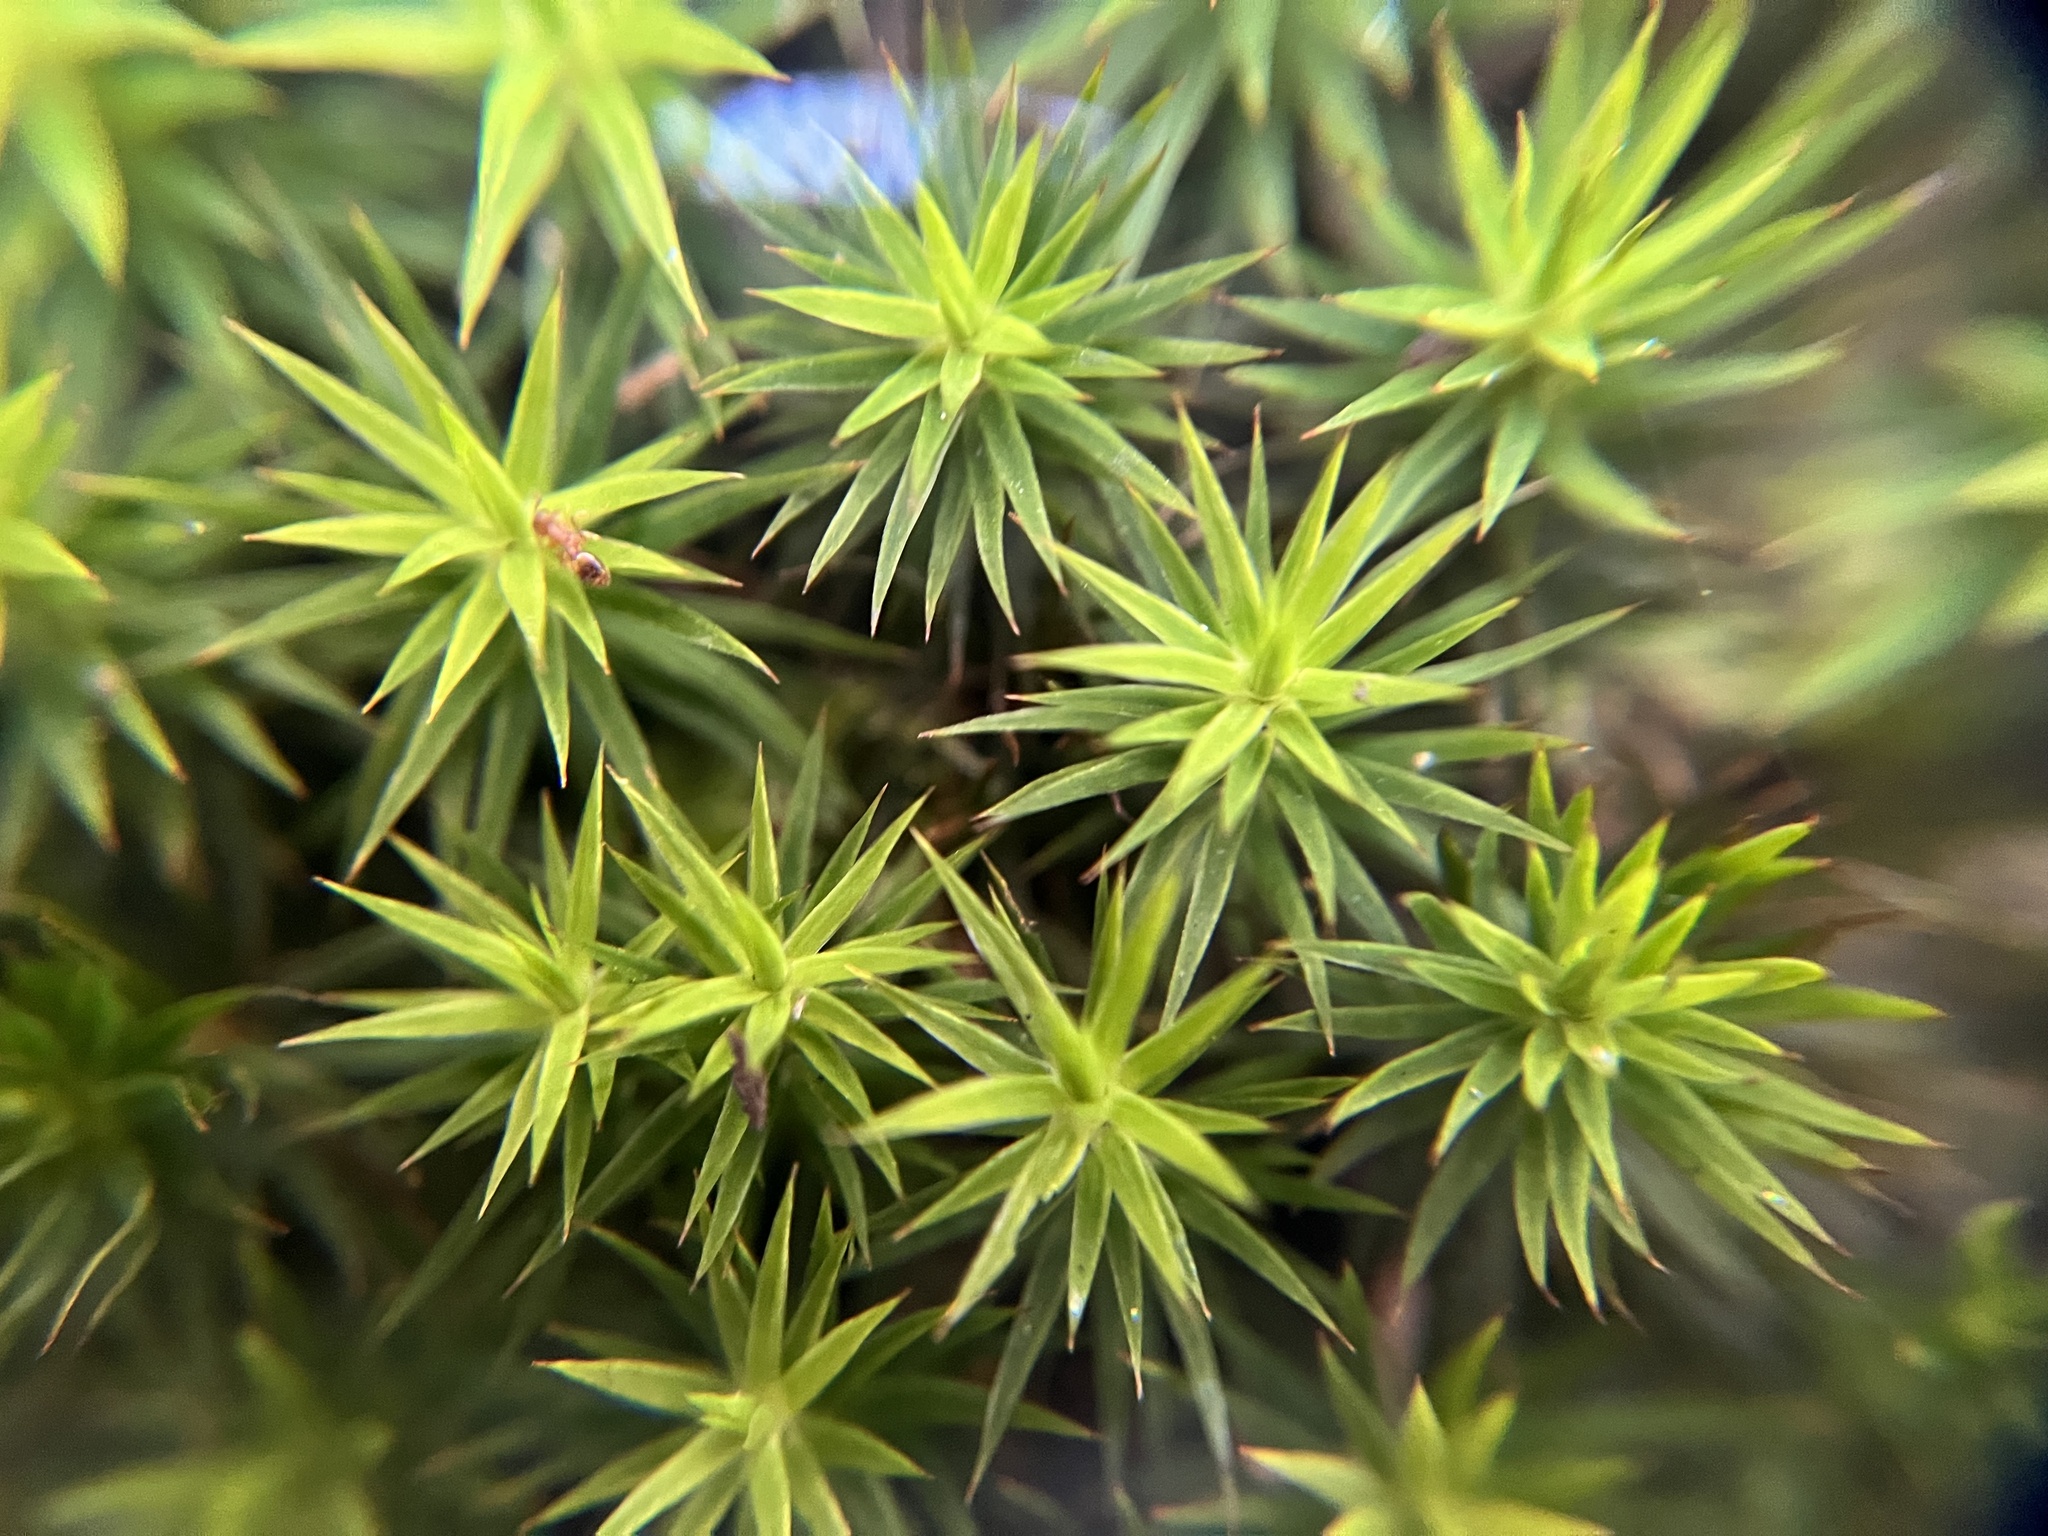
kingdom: Plantae
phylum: Bryophyta
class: Polytrichopsida
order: Polytrichales
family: Polytrichaceae
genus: Polytrichum
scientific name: Polytrichum formosum
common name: Bank haircap moss
